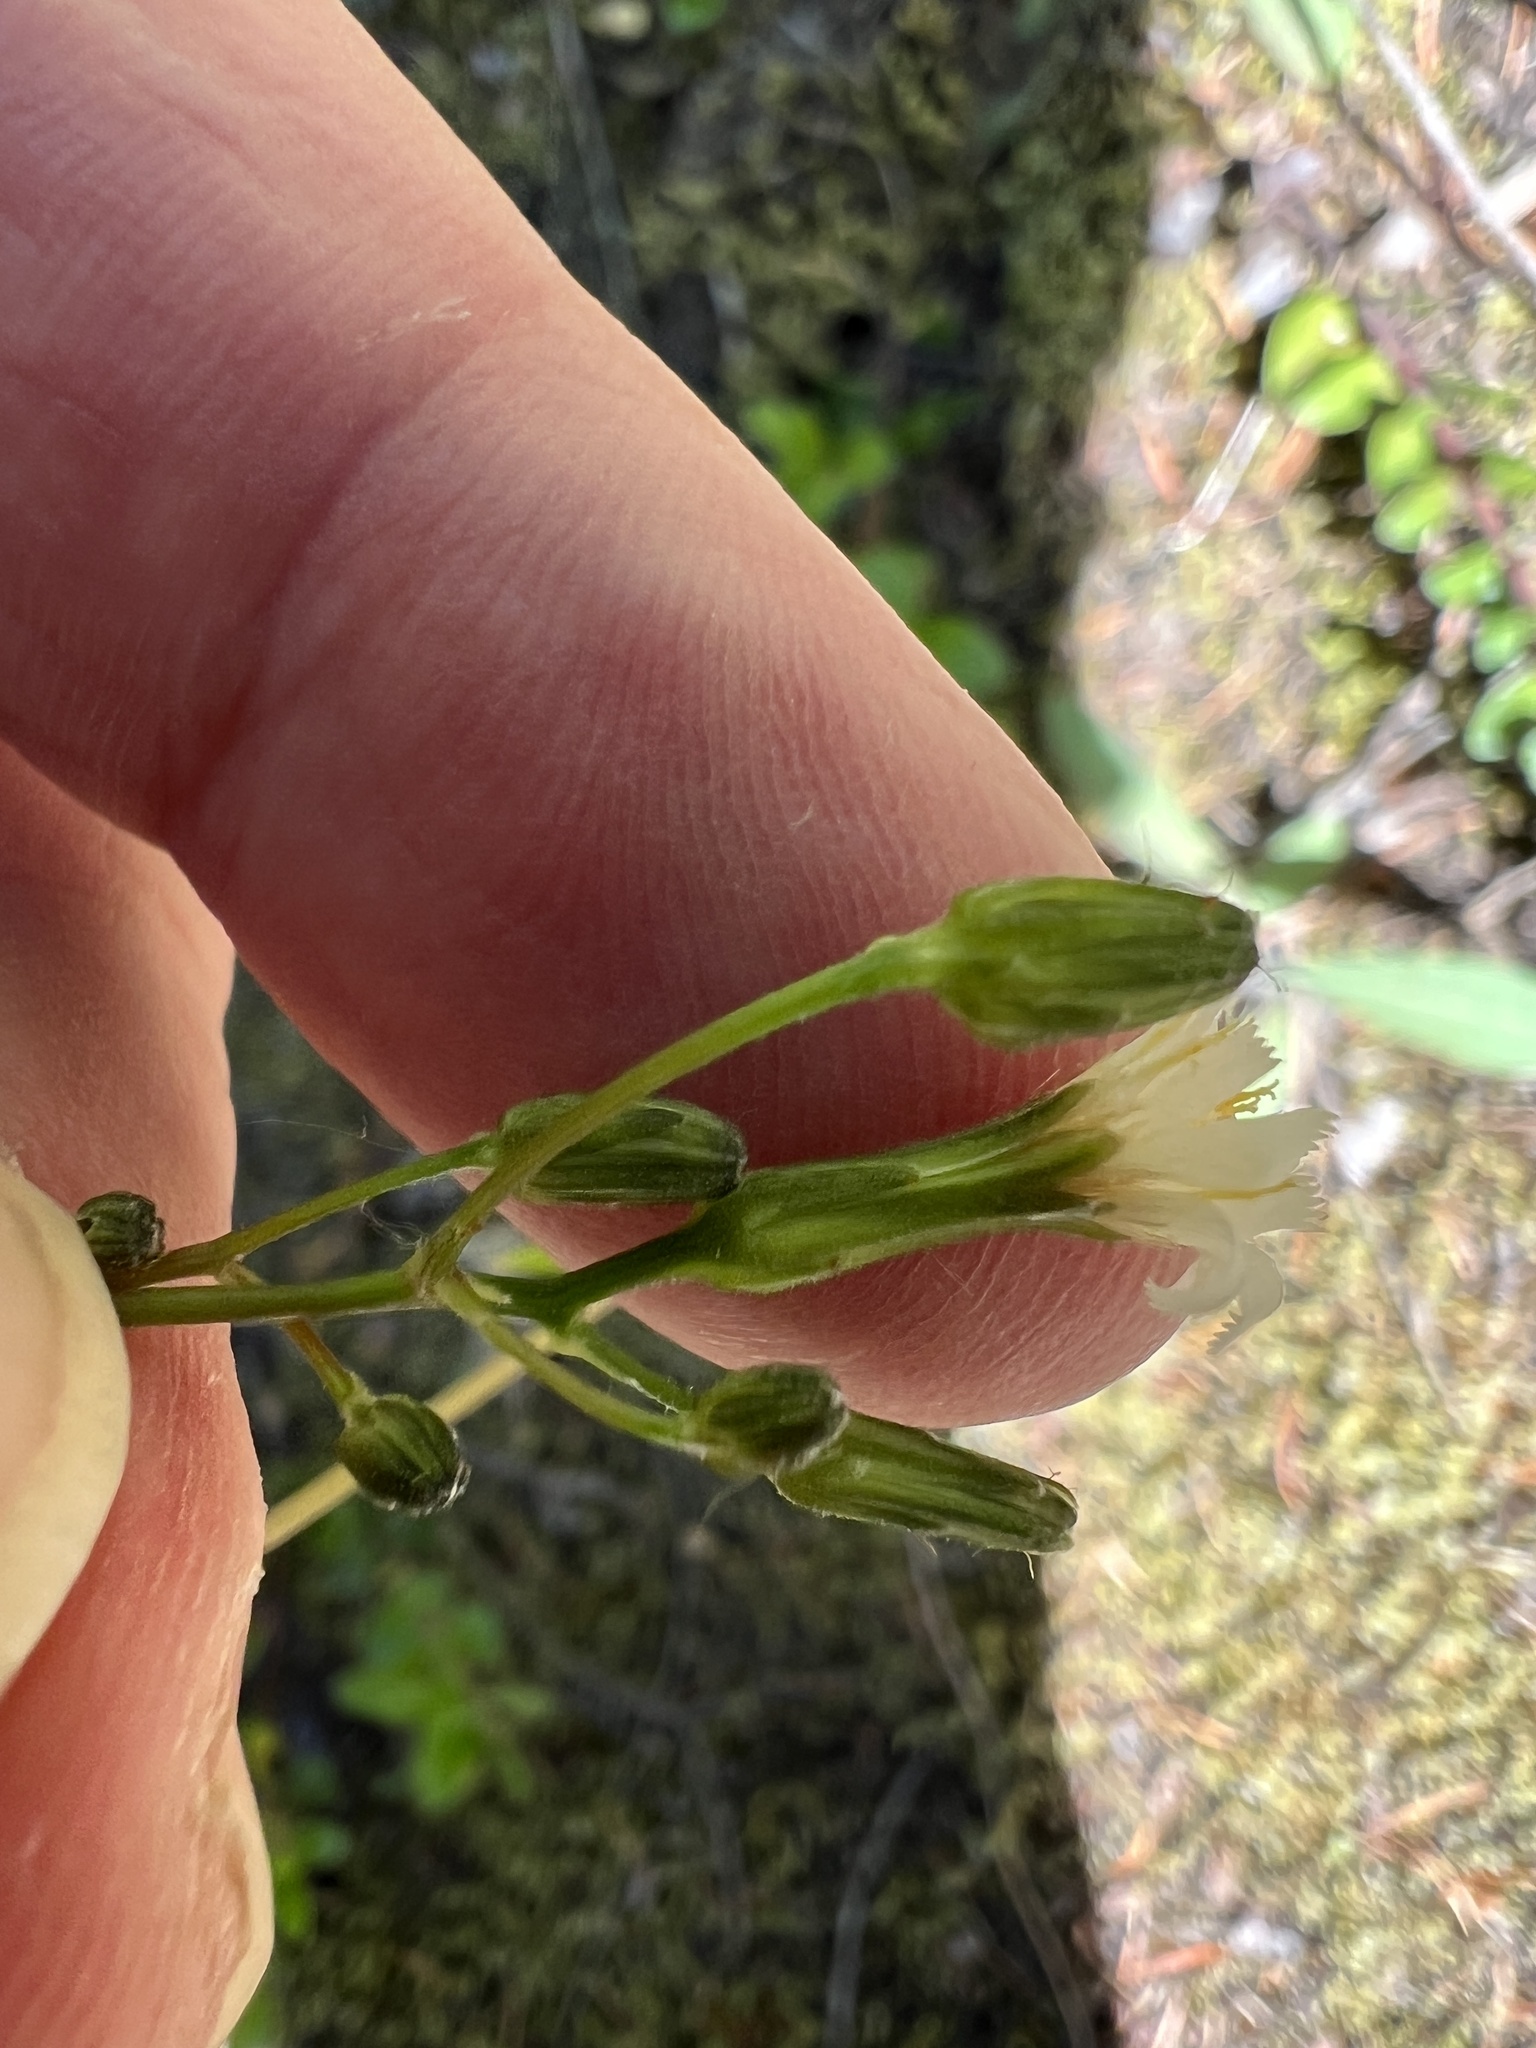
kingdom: Plantae
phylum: Tracheophyta
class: Magnoliopsida
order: Asterales
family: Asteraceae
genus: Hieracium
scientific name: Hieracium albiflorum
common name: White hawkweed
